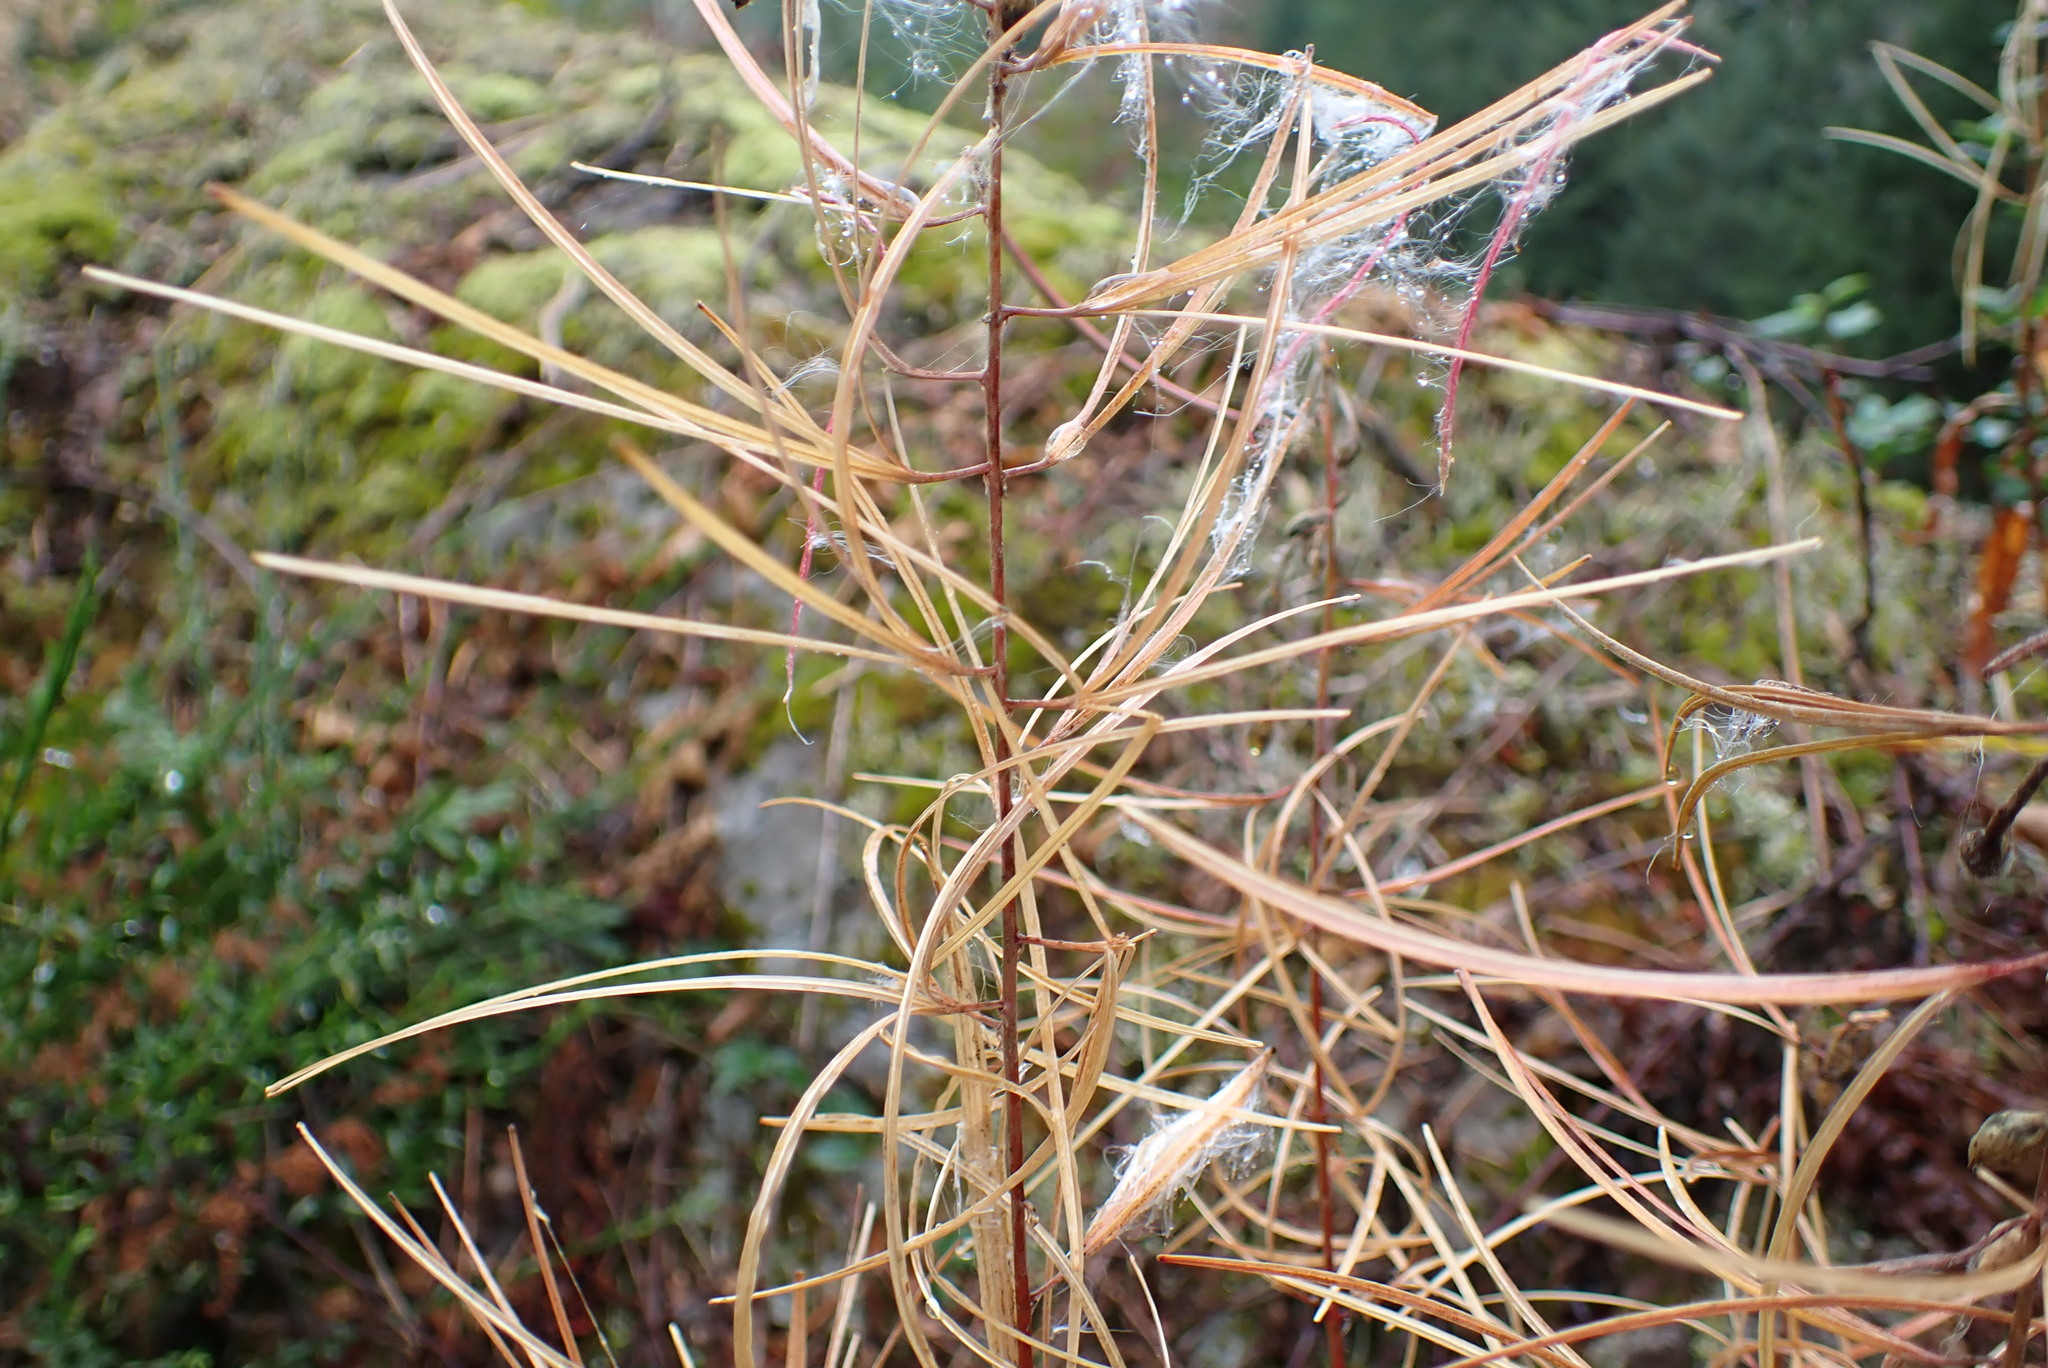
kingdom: Plantae
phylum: Tracheophyta
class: Magnoliopsida
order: Myrtales
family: Onagraceae
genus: Chamaenerion
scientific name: Chamaenerion angustifolium
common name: Fireweed
